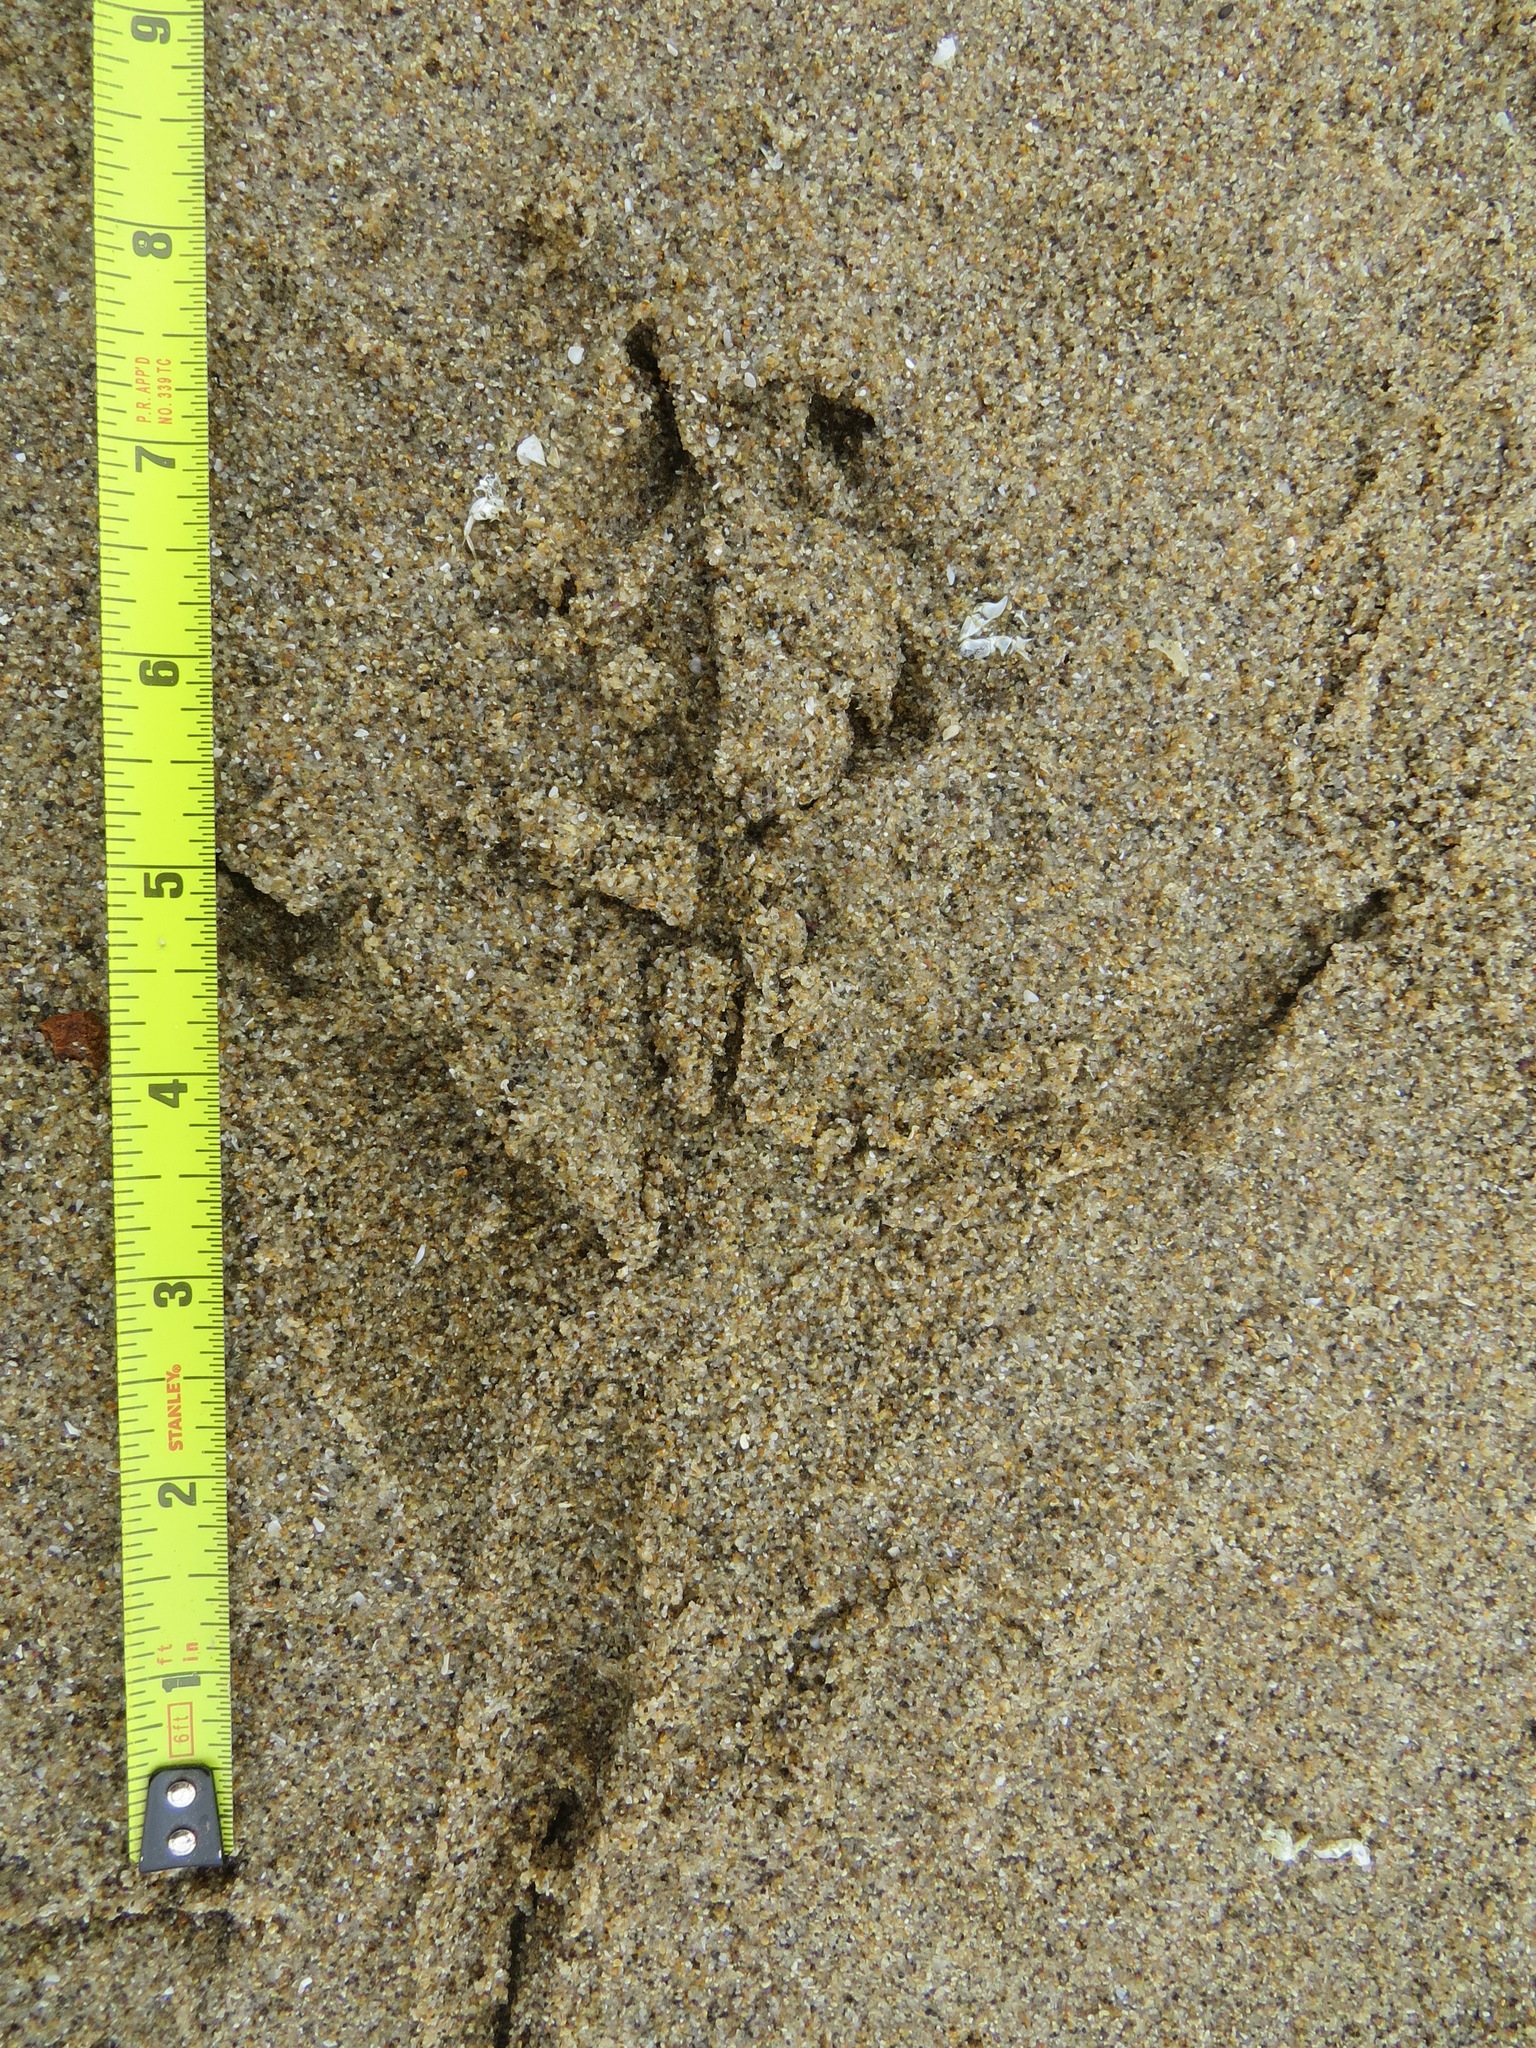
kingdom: Animalia
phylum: Chordata
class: Aves
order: Pelecaniformes
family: Ardeidae
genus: Ardea
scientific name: Ardea herodias
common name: Great blue heron
